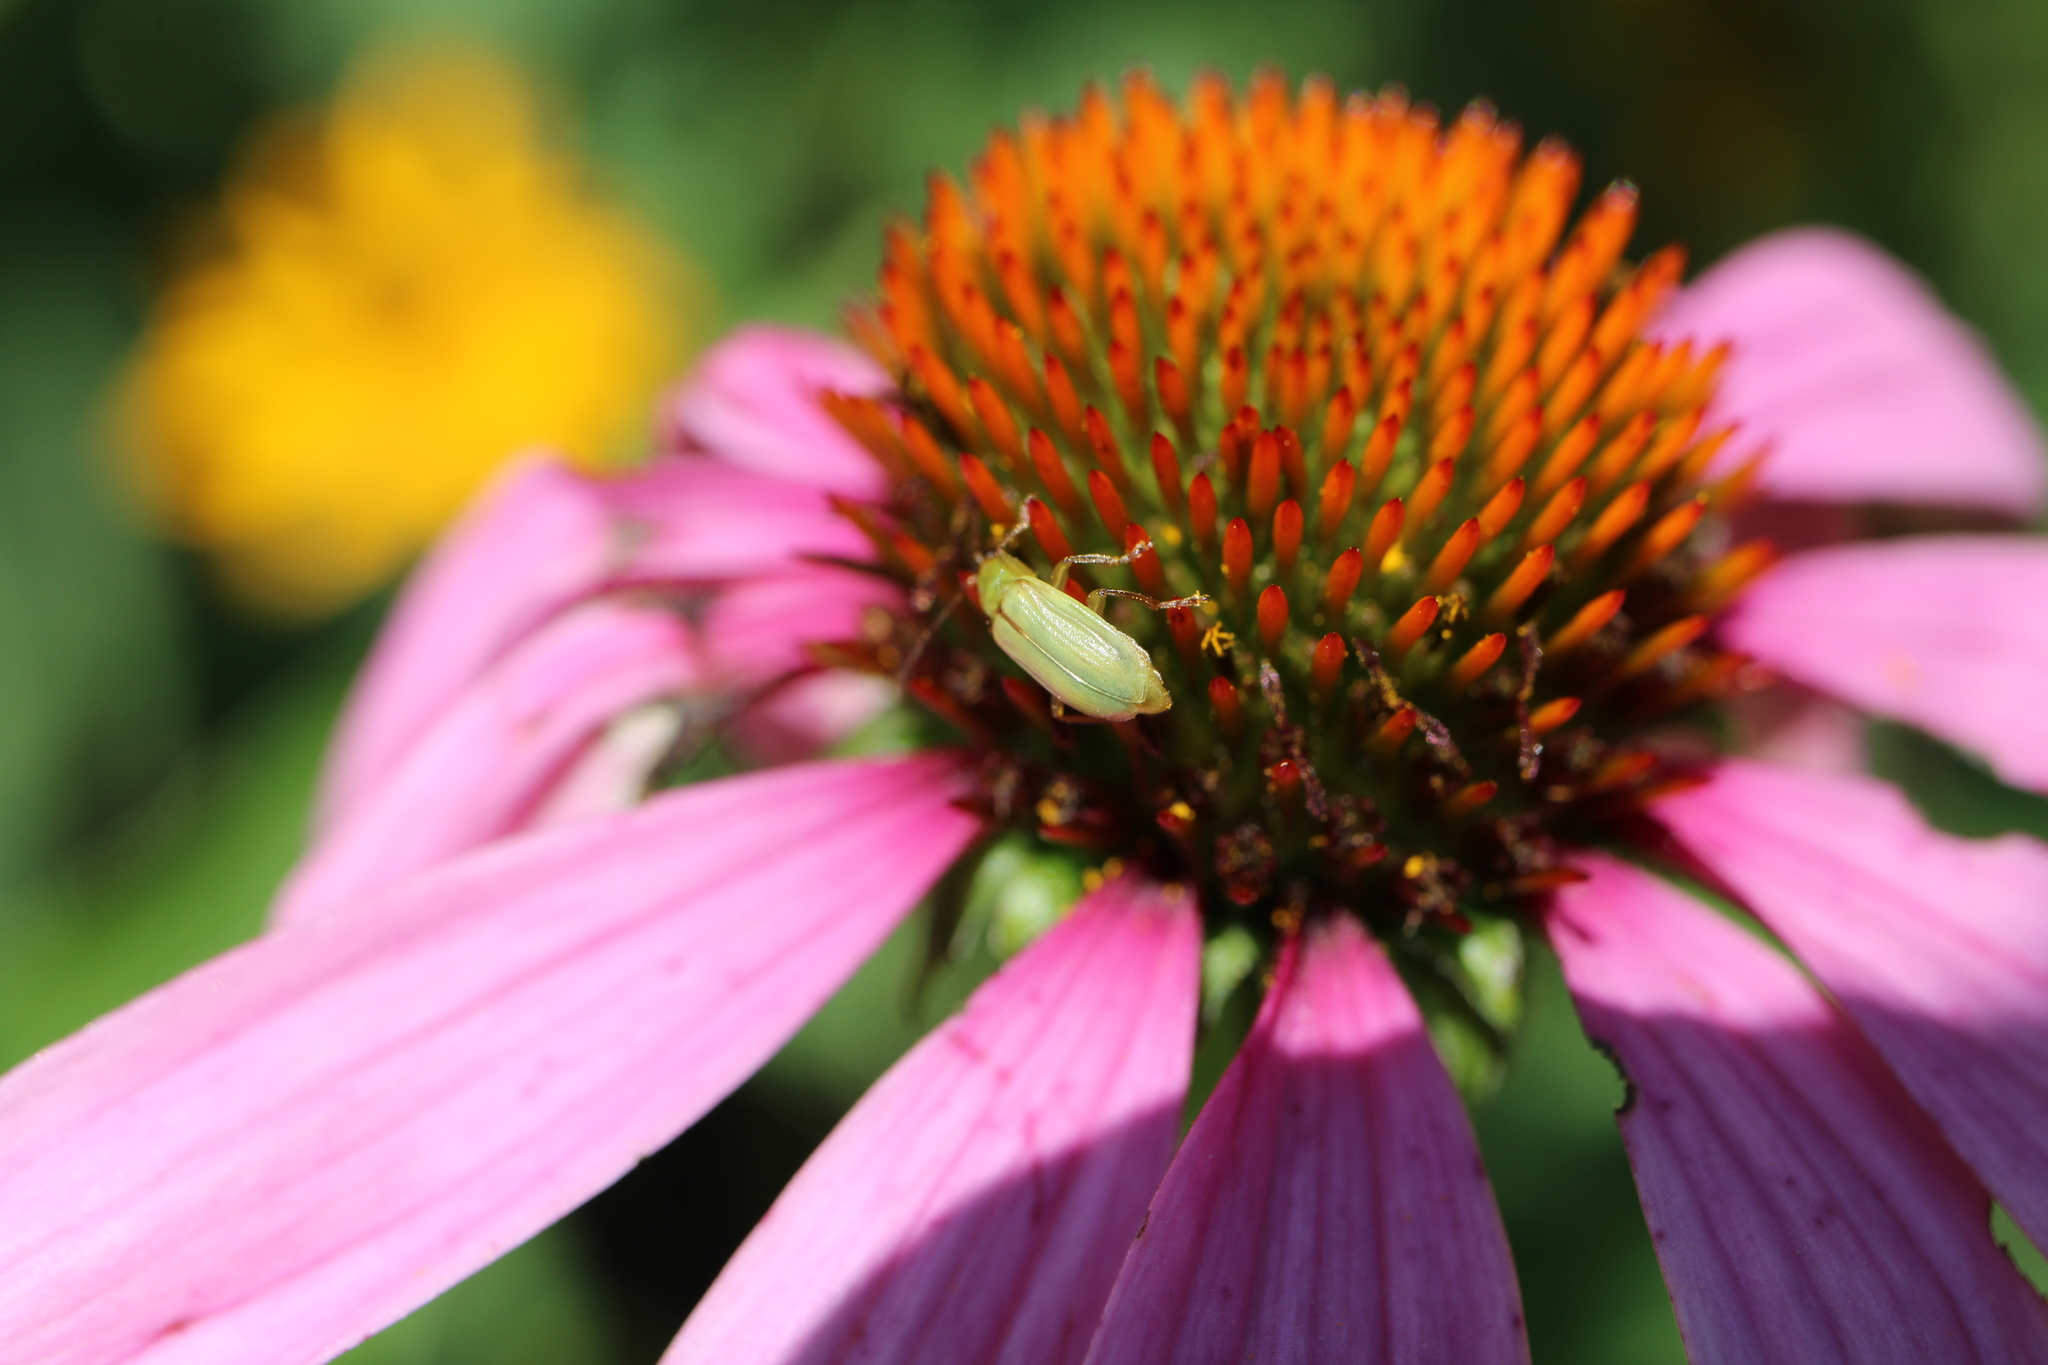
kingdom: Animalia
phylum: Arthropoda
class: Insecta
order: Coleoptera
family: Chrysomelidae
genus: Diabrotica
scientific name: Diabrotica barberi
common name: Northern corn rootworm
